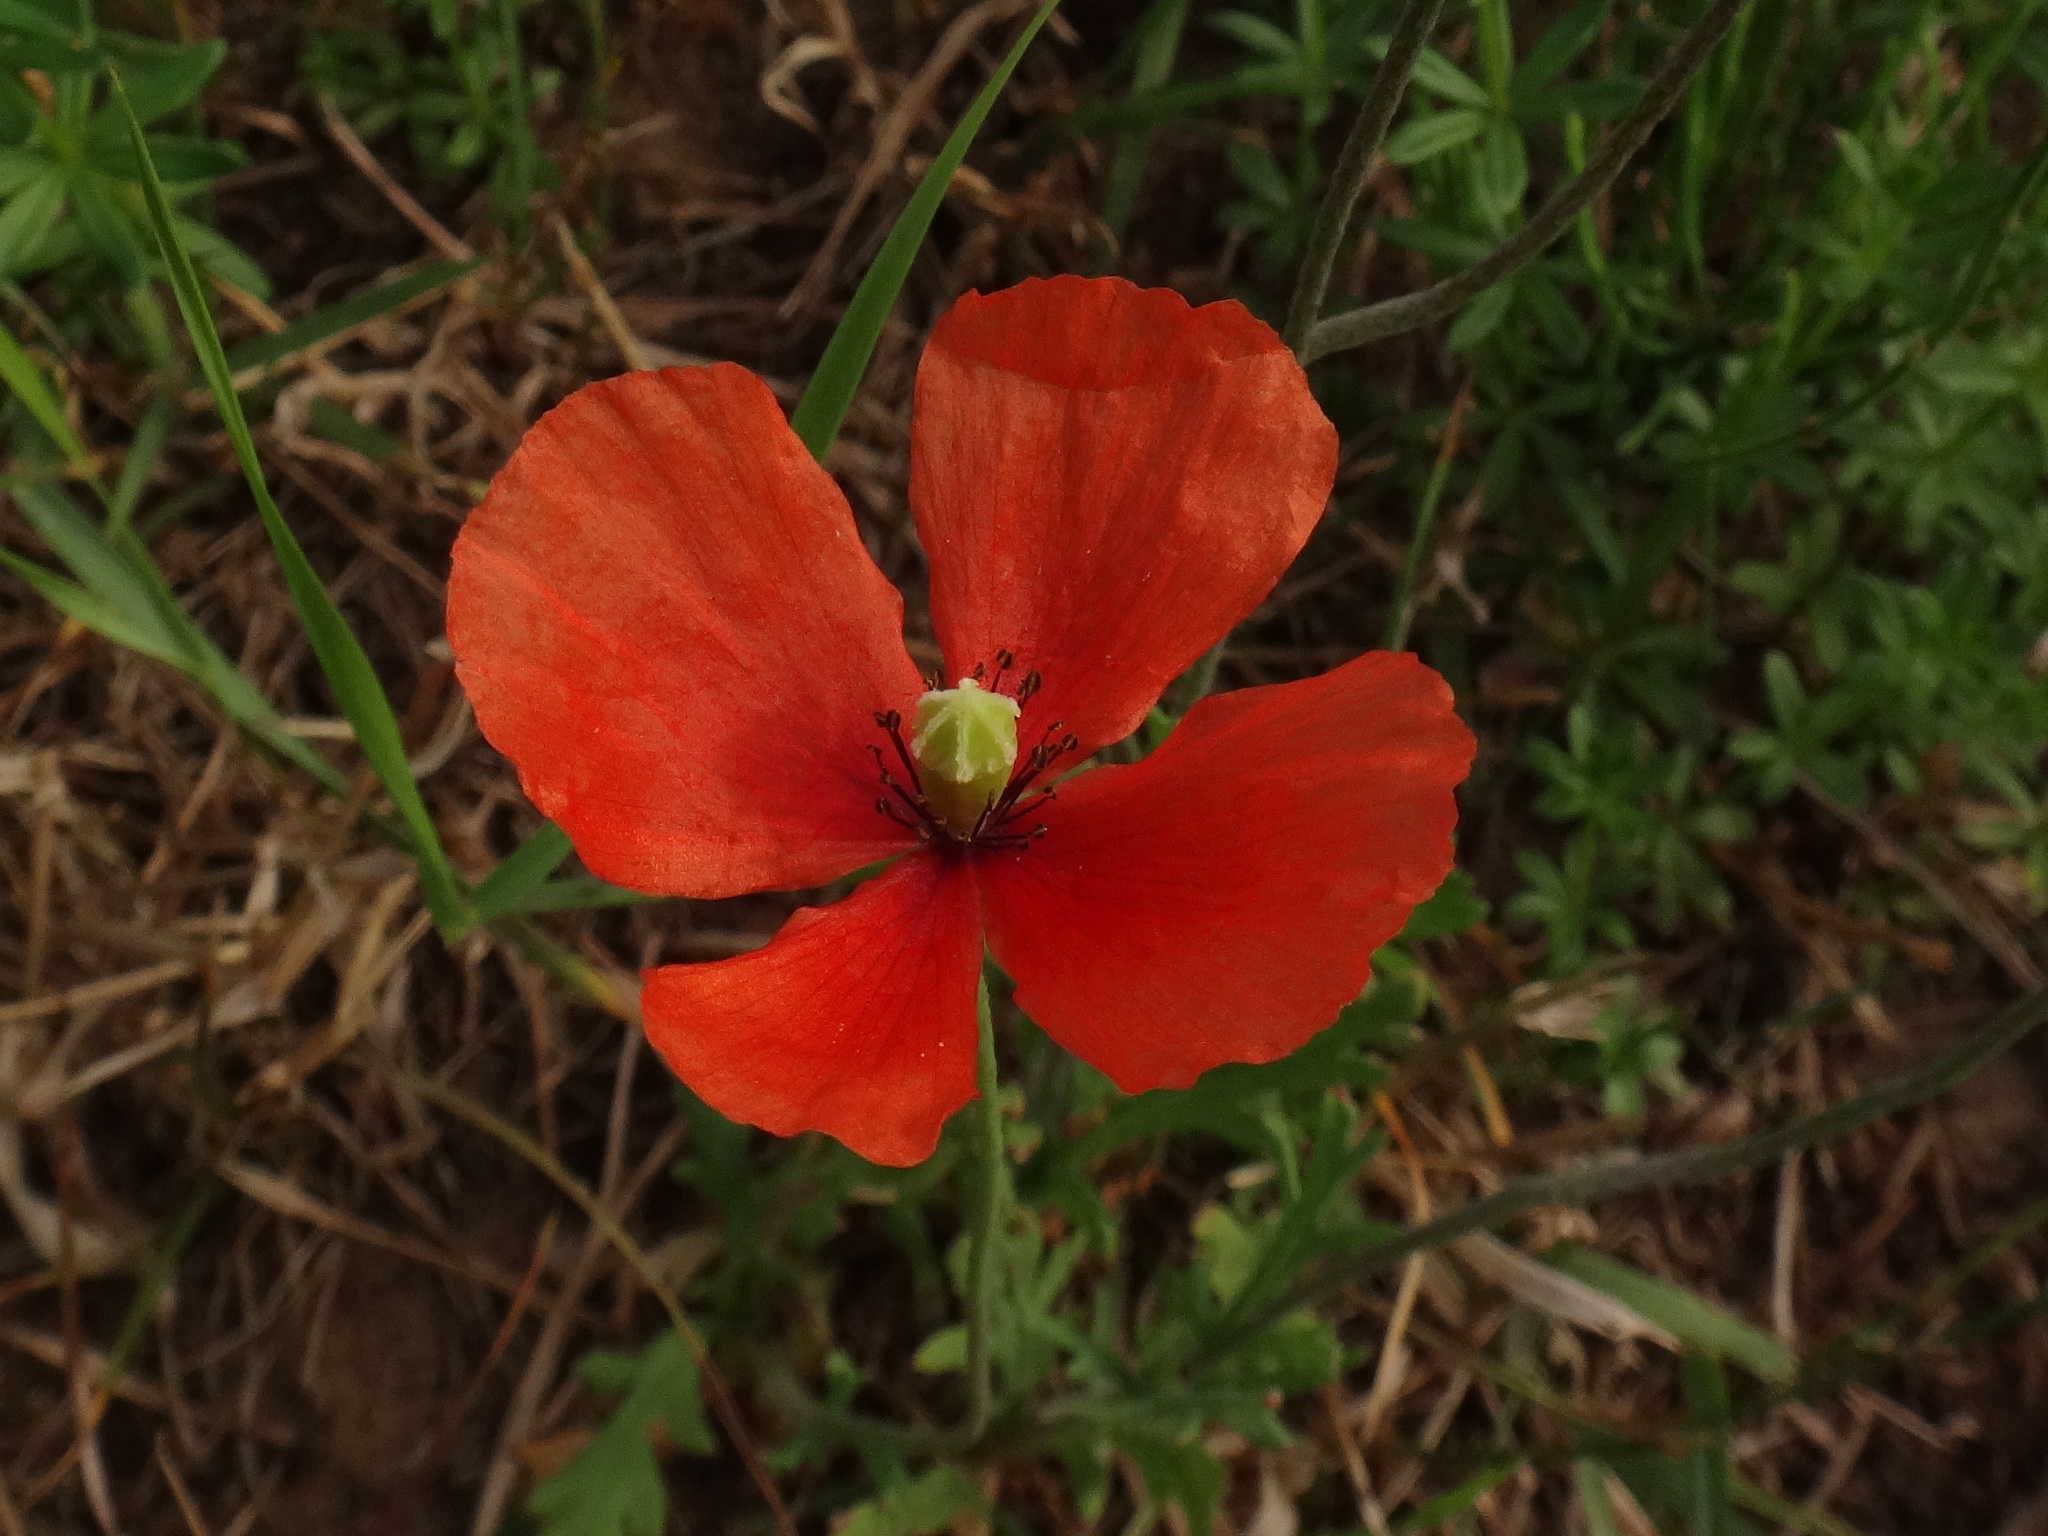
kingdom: Plantae
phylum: Tracheophyta
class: Magnoliopsida
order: Ranunculales
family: Papaveraceae
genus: Papaver
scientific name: Papaver dubium
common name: Long-headed poppy
